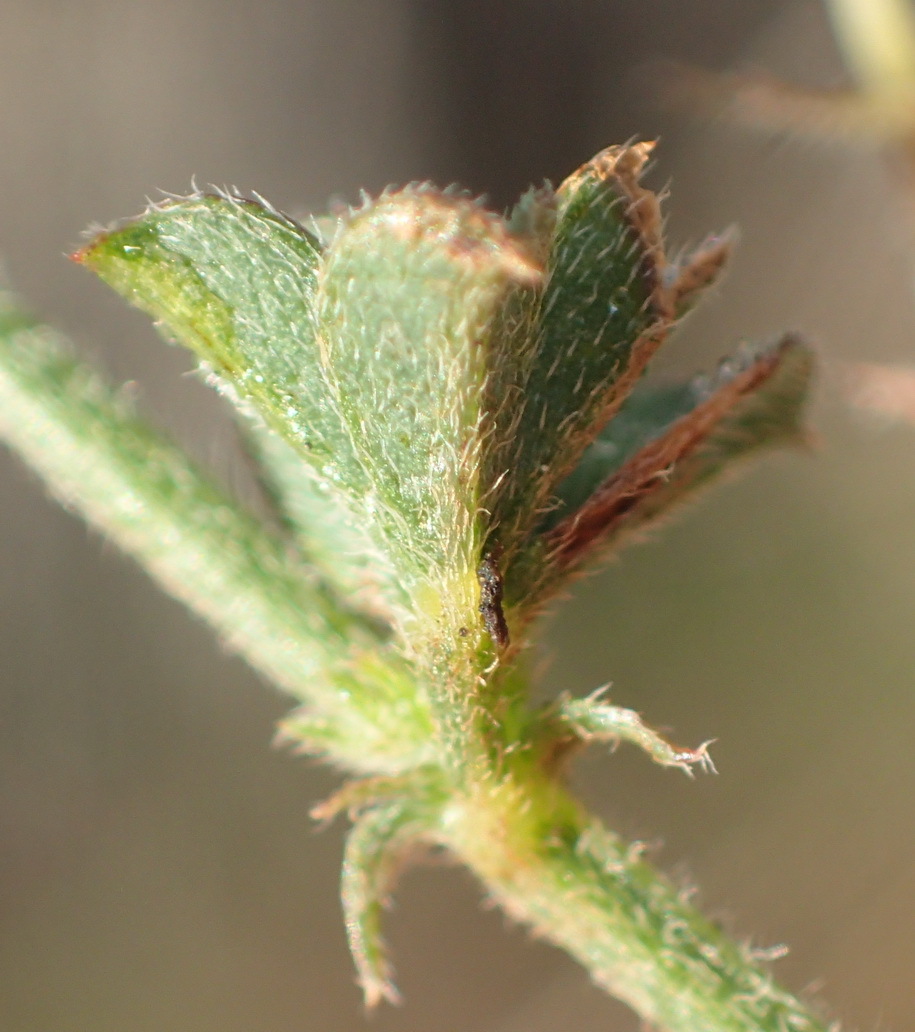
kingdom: Plantae
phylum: Tracheophyta
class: Magnoliopsida
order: Fabales
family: Fabaceae
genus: Indigofera
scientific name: Indigofera priorii
